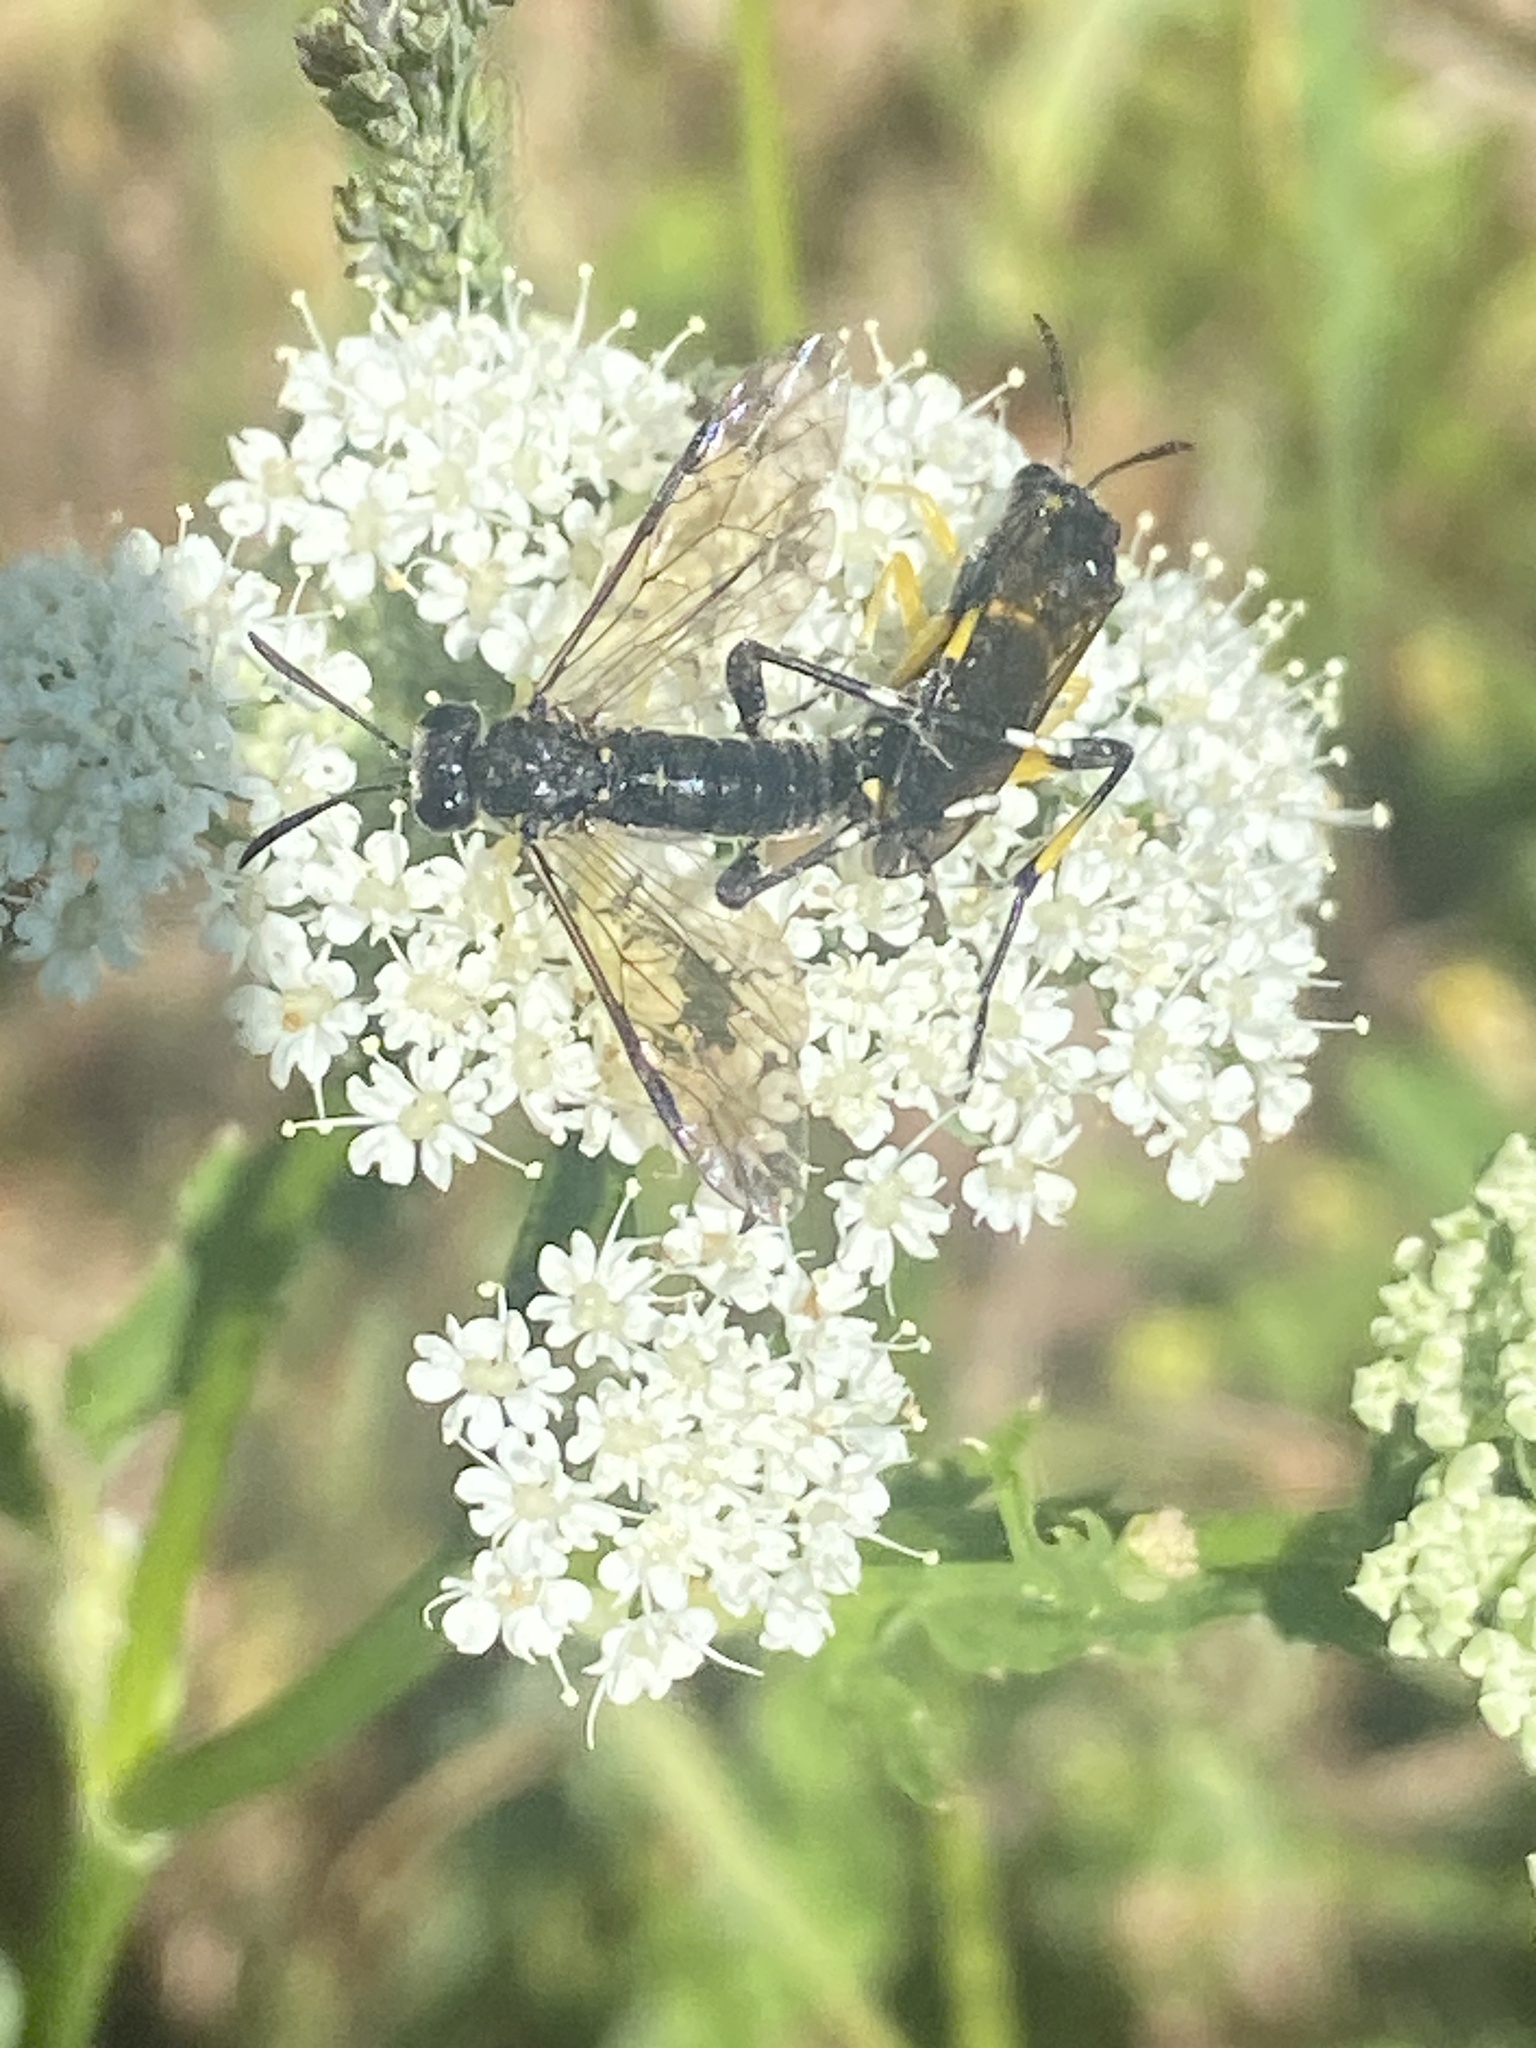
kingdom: Animalia
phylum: Arthropoda
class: Insecta
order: Hymenoptera
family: Tenthredinidae
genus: Macrophya
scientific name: Macrophya montana
